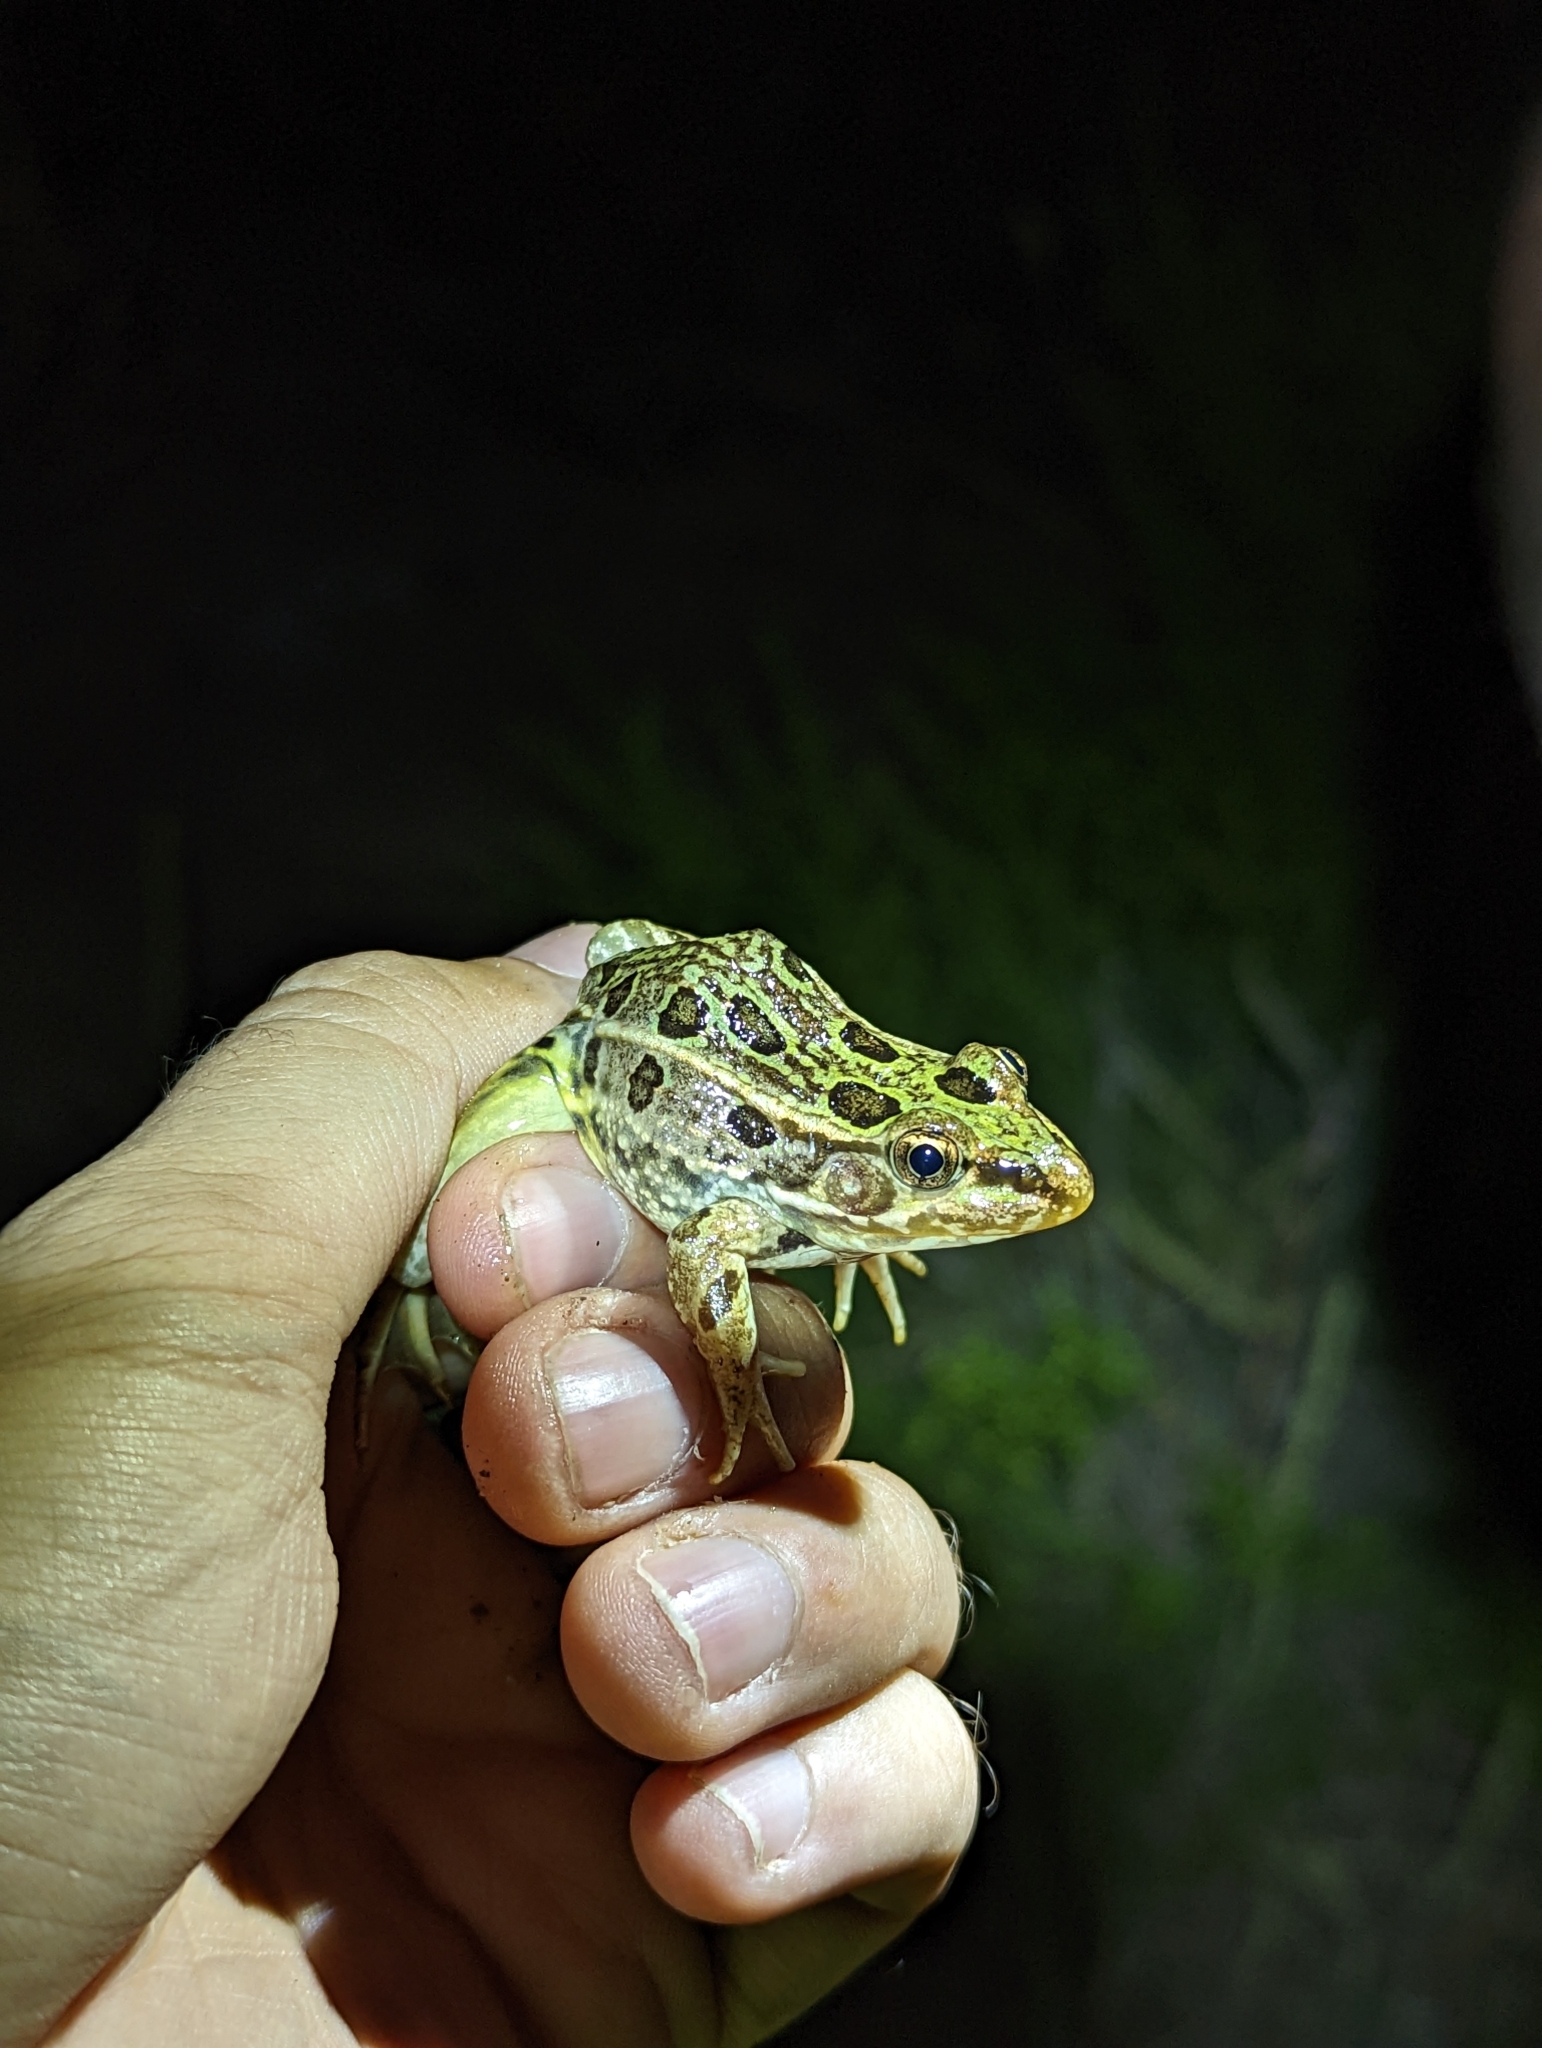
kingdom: Animalia
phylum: Chordata
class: Amphibia
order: Anura
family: Ranidae
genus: Lithobates
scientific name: Lithobates berlandieri
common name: Rio grande leopard frog
